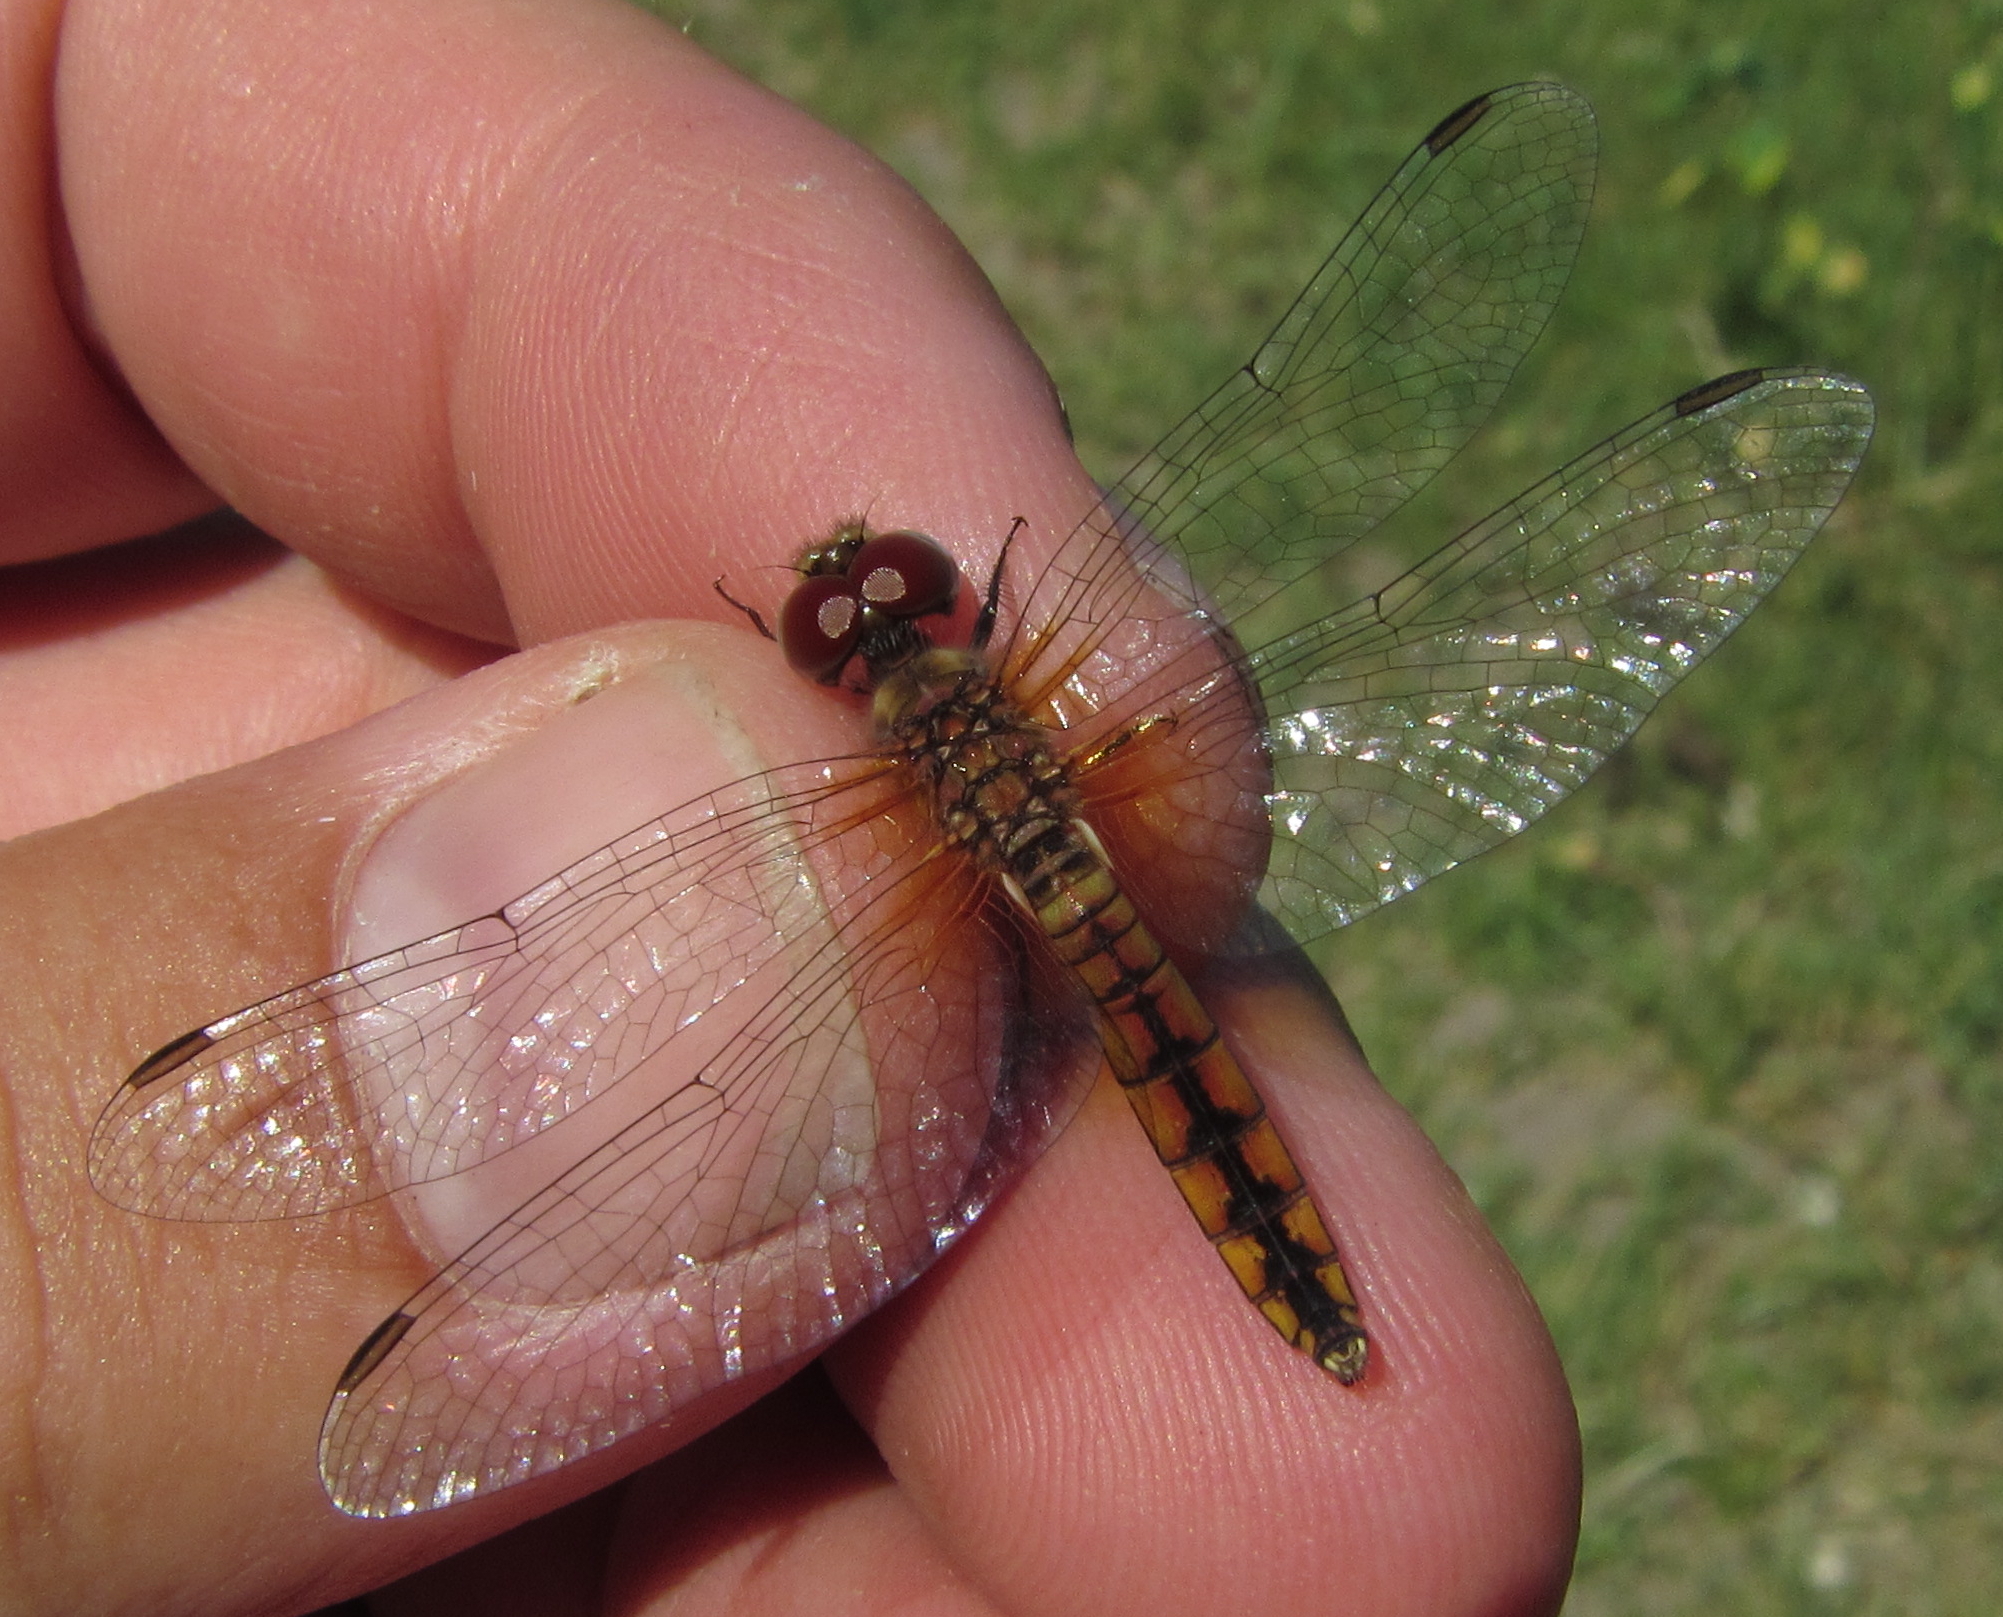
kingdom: Animalia
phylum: Arthropoda
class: Insecta
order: Odonata
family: Libellulidae
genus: Aethriamanta
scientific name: Aethriamanta rezia
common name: Pygmy basker
